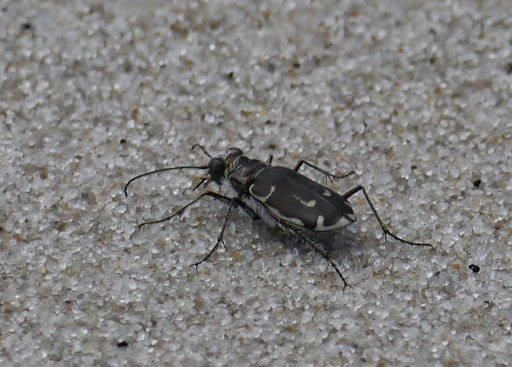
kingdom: Animalia
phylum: Arthropoda
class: Insecta
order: Coleoptera
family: Carabidae
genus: Cicindela
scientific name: Cicindela hirticollis
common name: Hairy-necked tiger beetle
